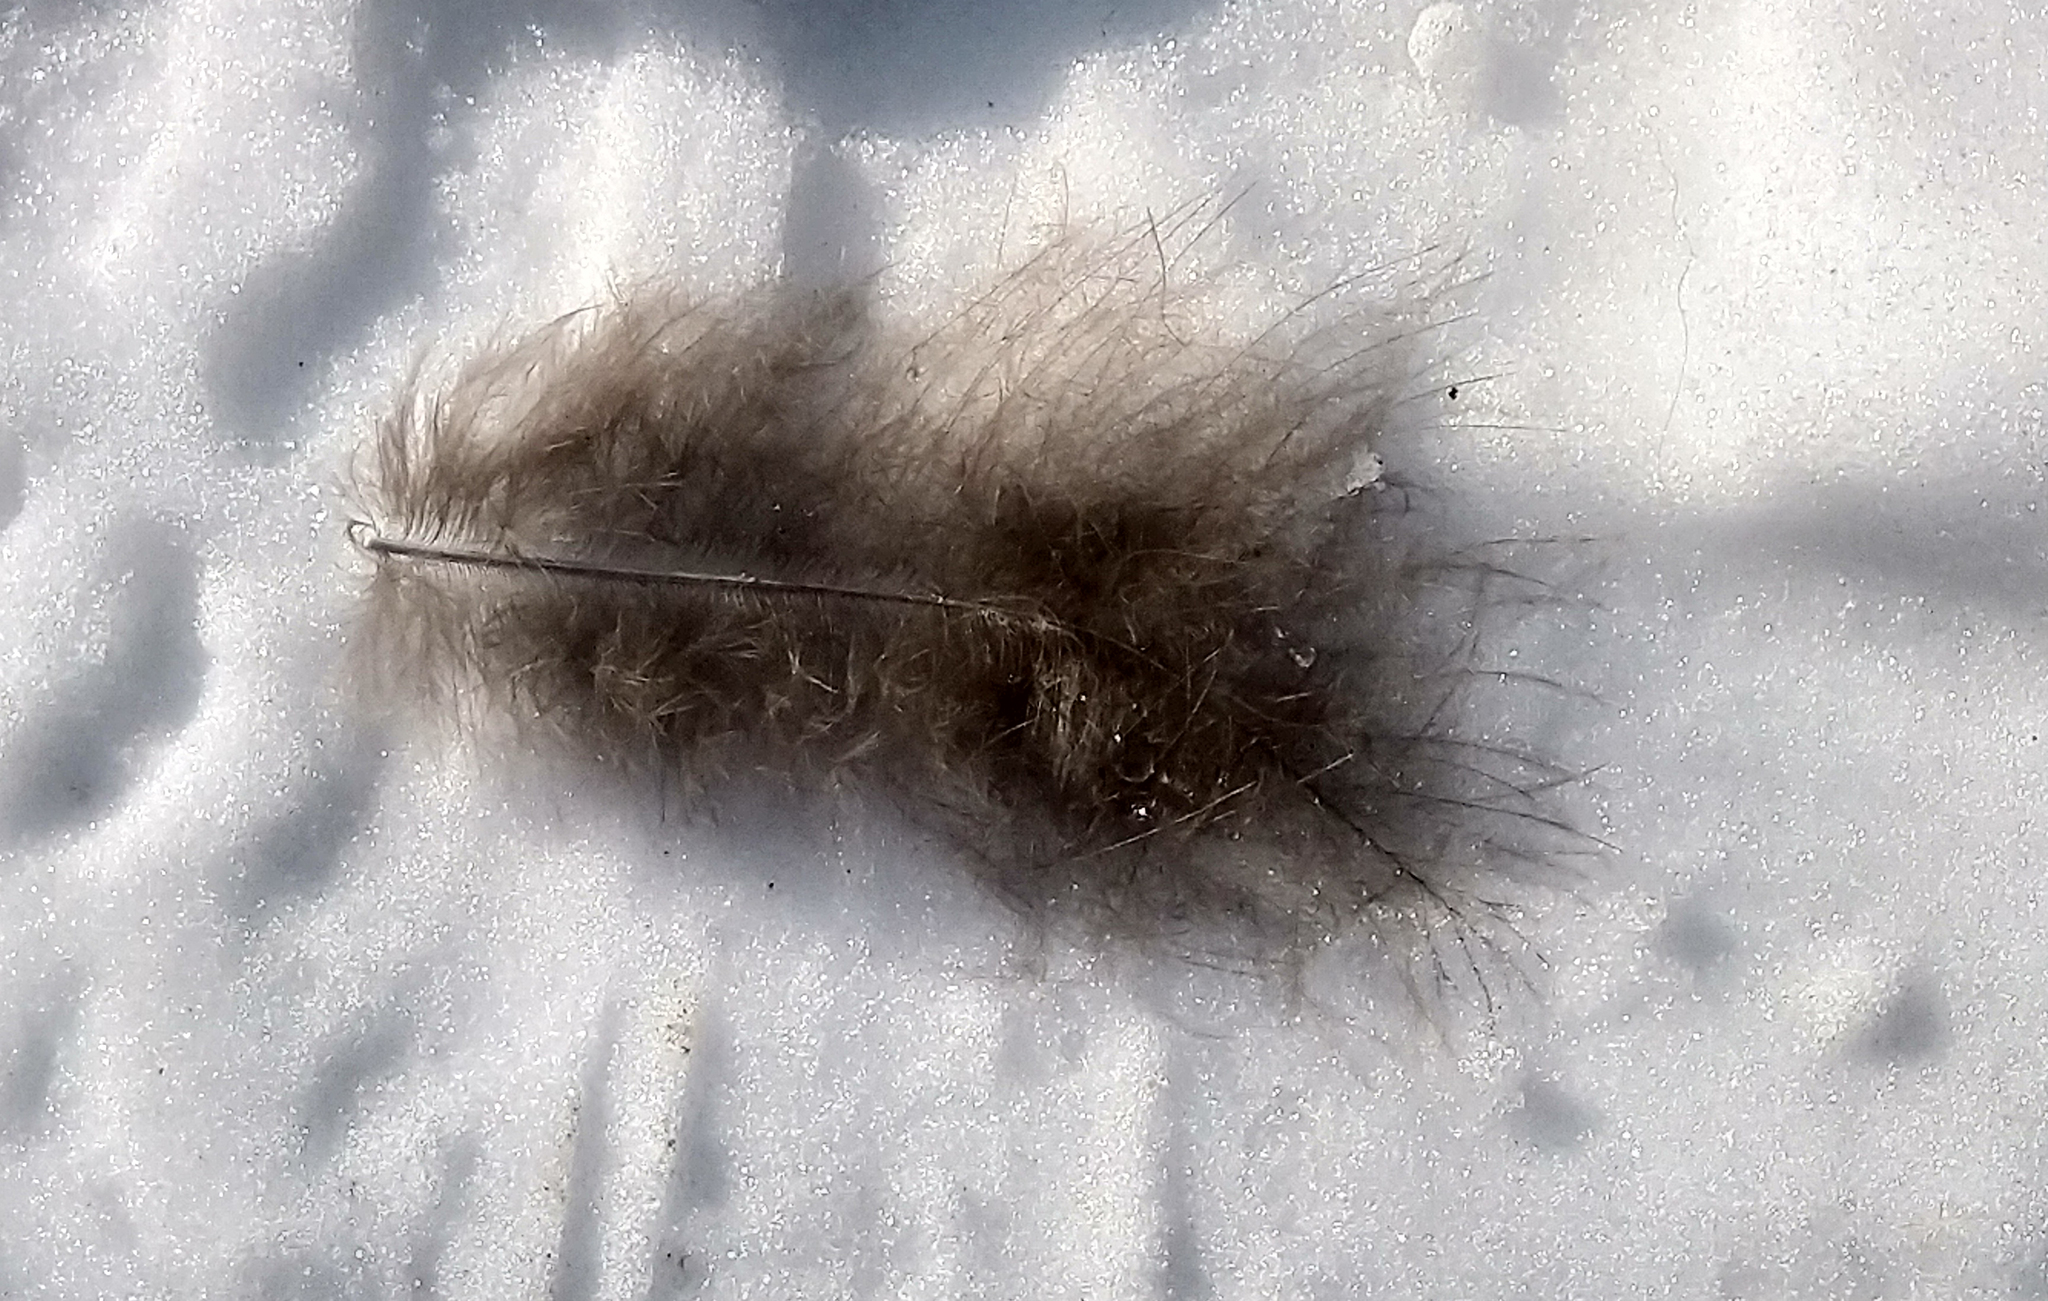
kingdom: Animalia
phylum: Chordata
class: Aves
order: Galliformes
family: Phasianidae
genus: Meleagris
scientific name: Meleagris gallopavo
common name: Wild turkey
